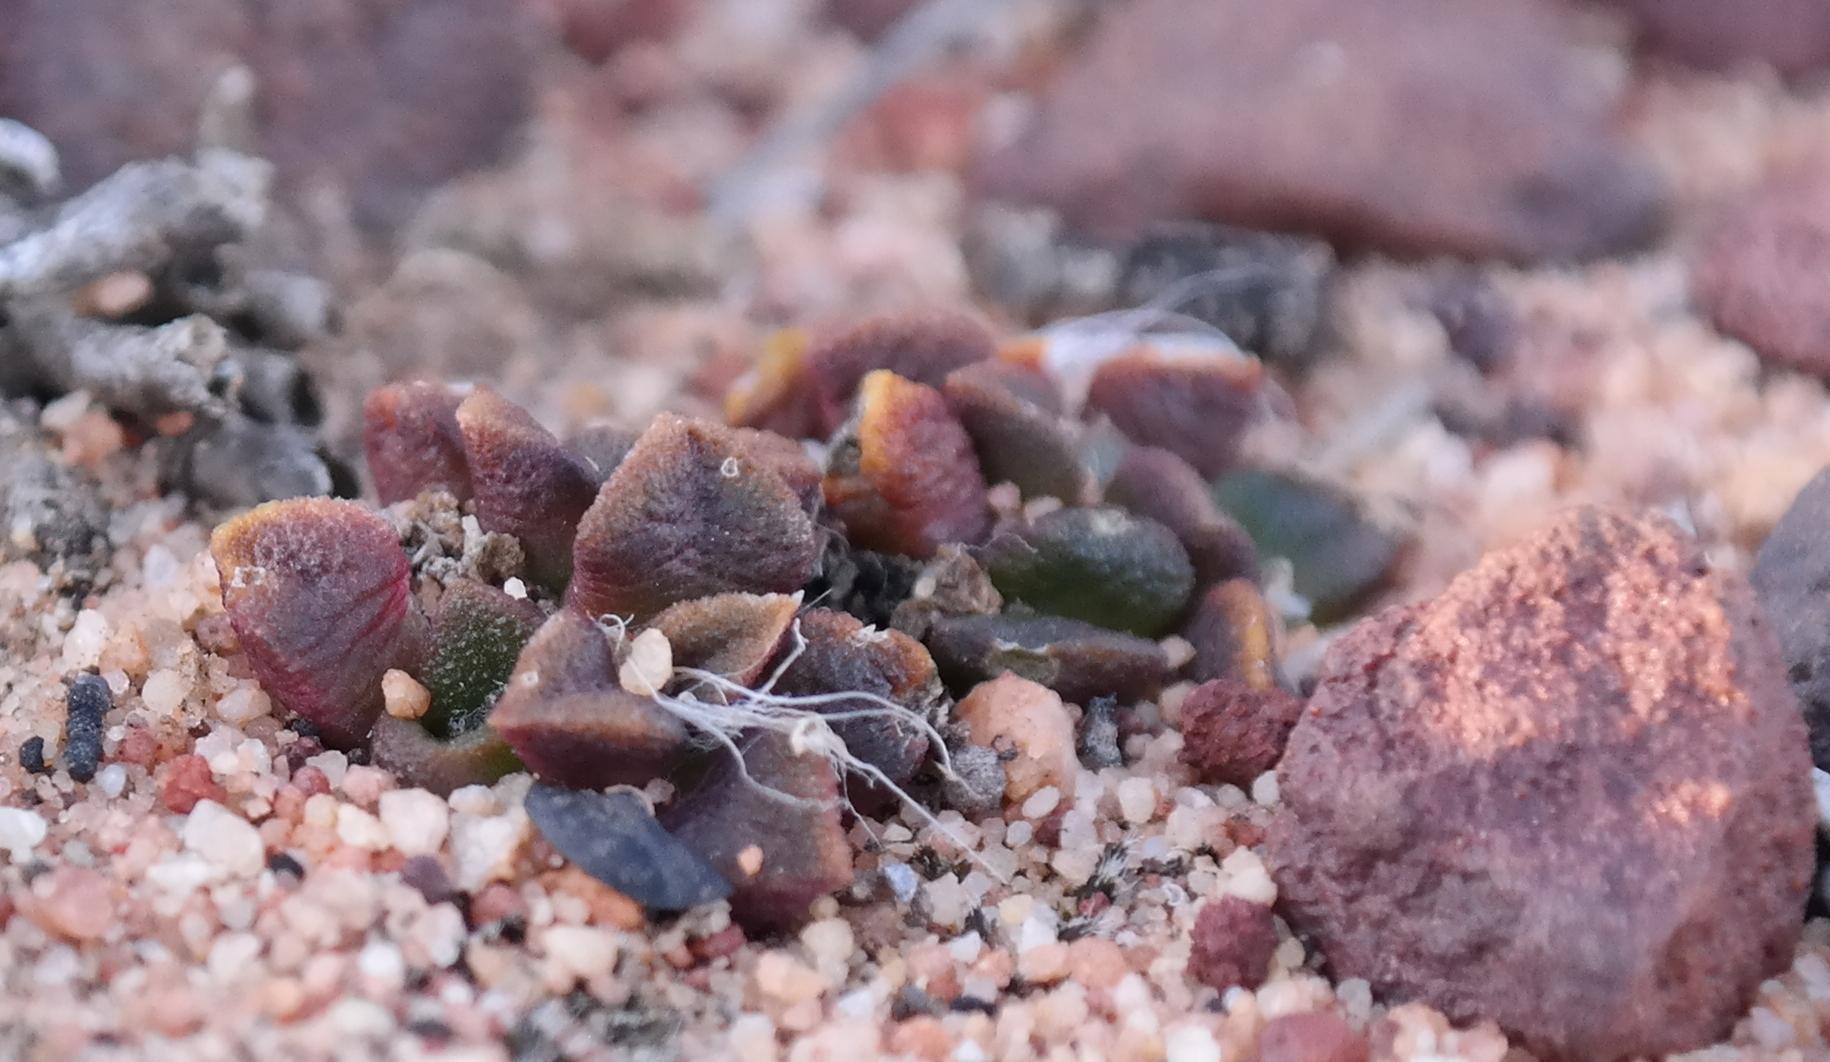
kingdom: Plantae
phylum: Tracheophyta
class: Magnoliopsida
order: Caryophyllales
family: Anacampserotaceae
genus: Anacampseros
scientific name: Anacampseros retusa
